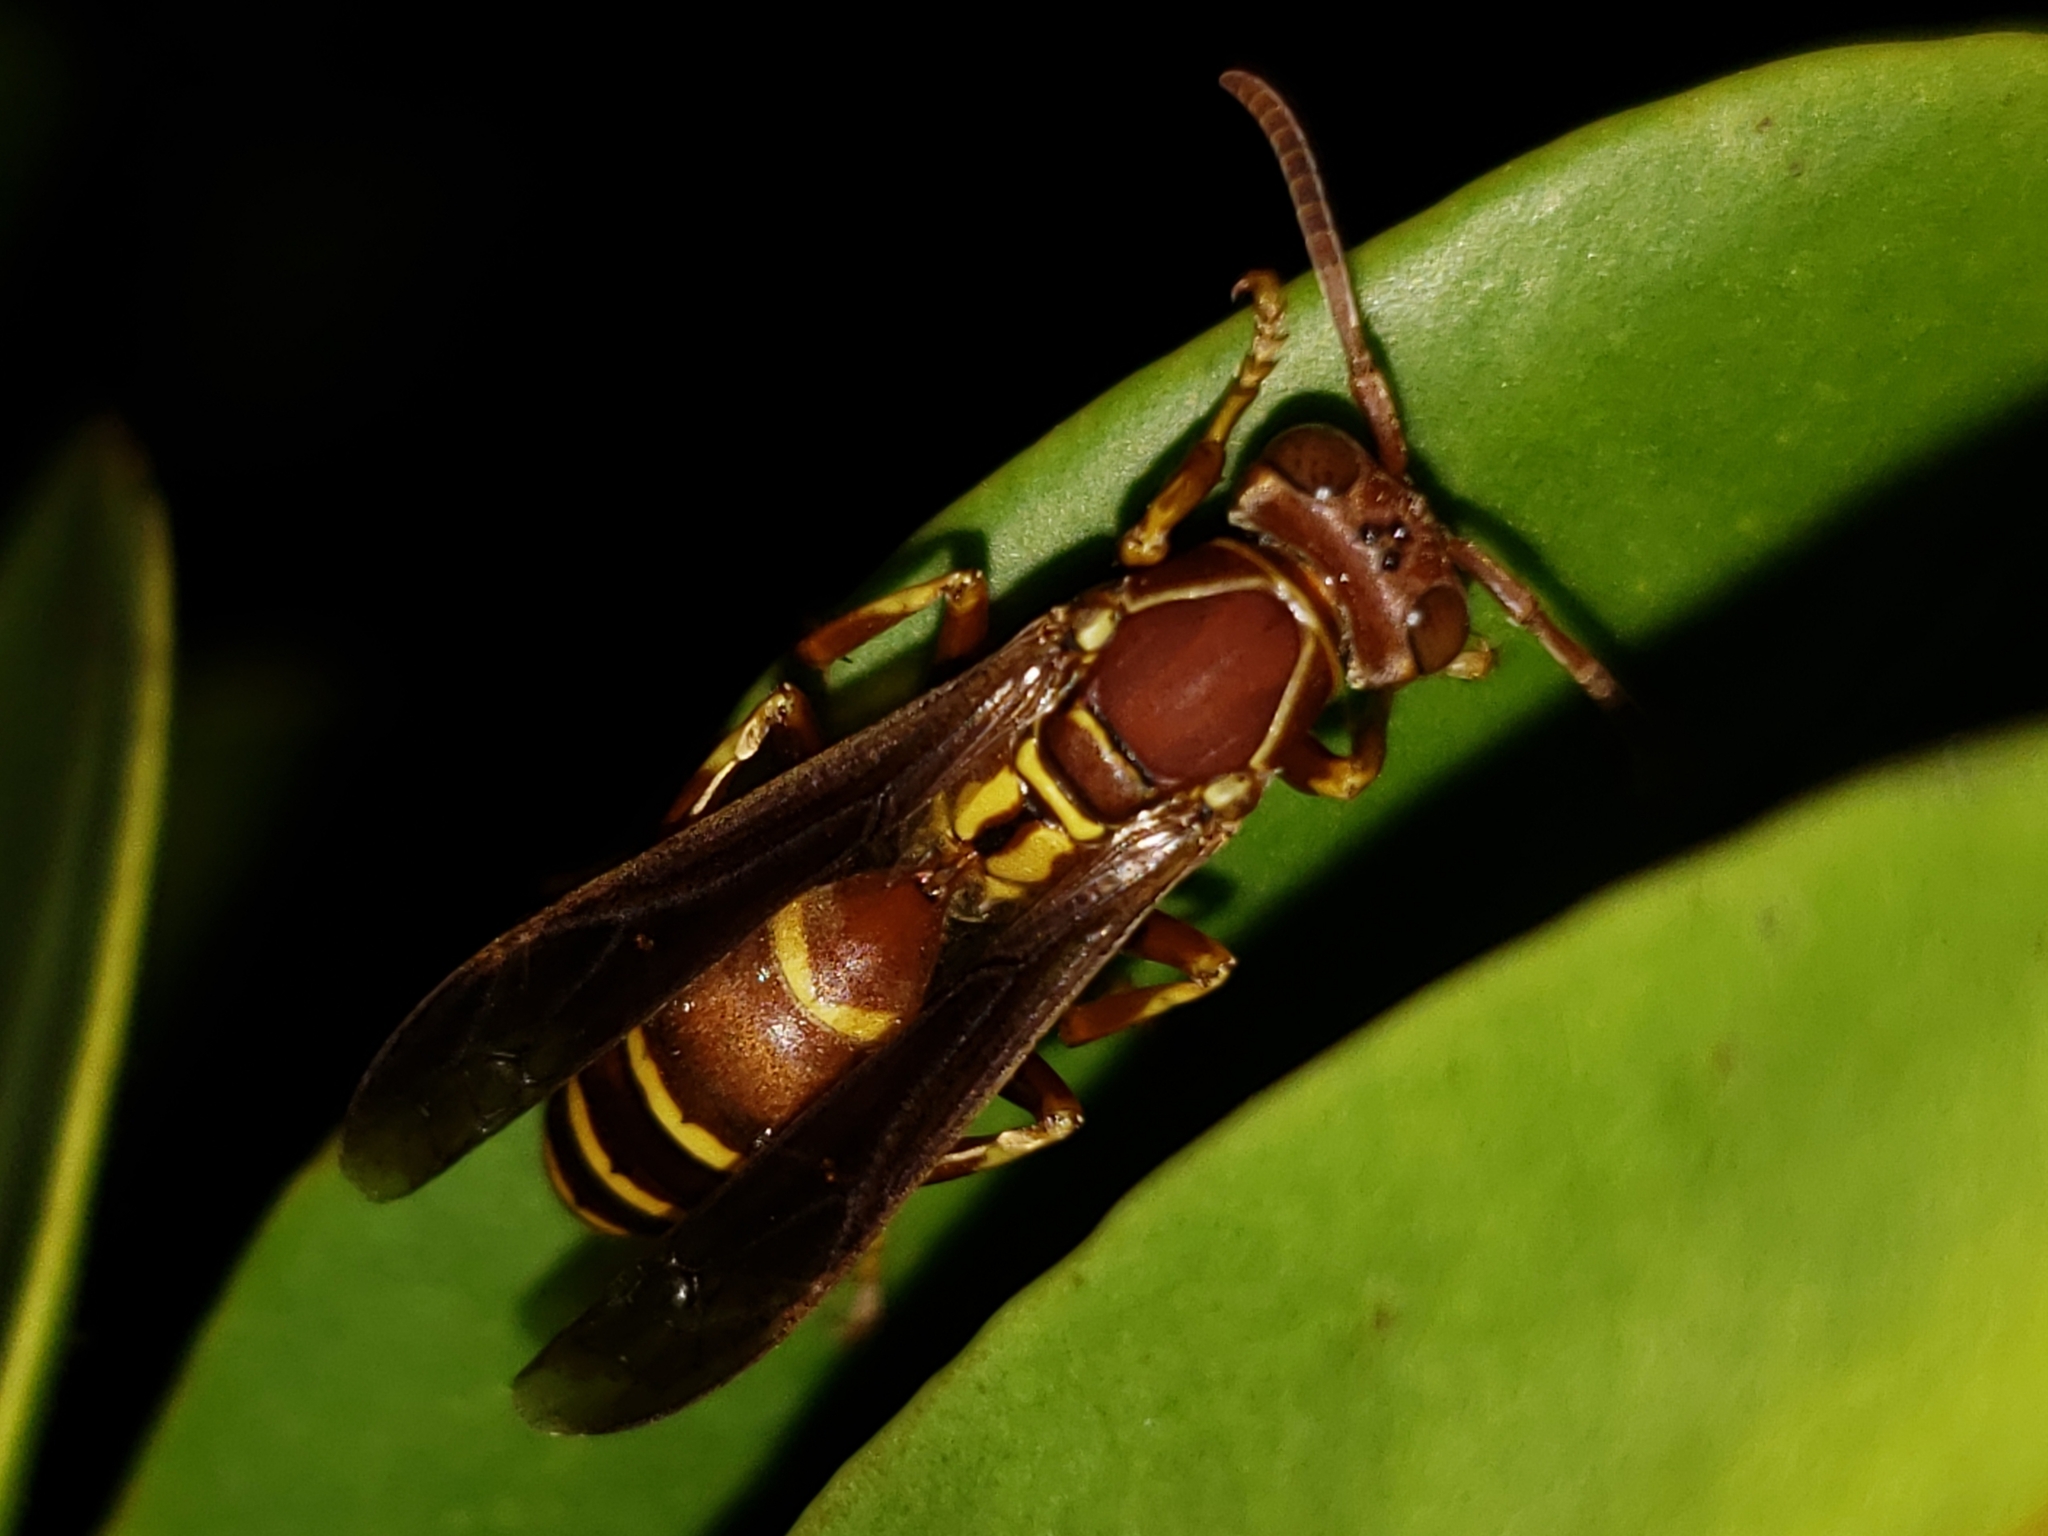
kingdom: Animalia
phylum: Arthropoda
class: Insecta
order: Hymenoptera
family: Eumenidae
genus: Polistes
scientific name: Polistes dorsalis
